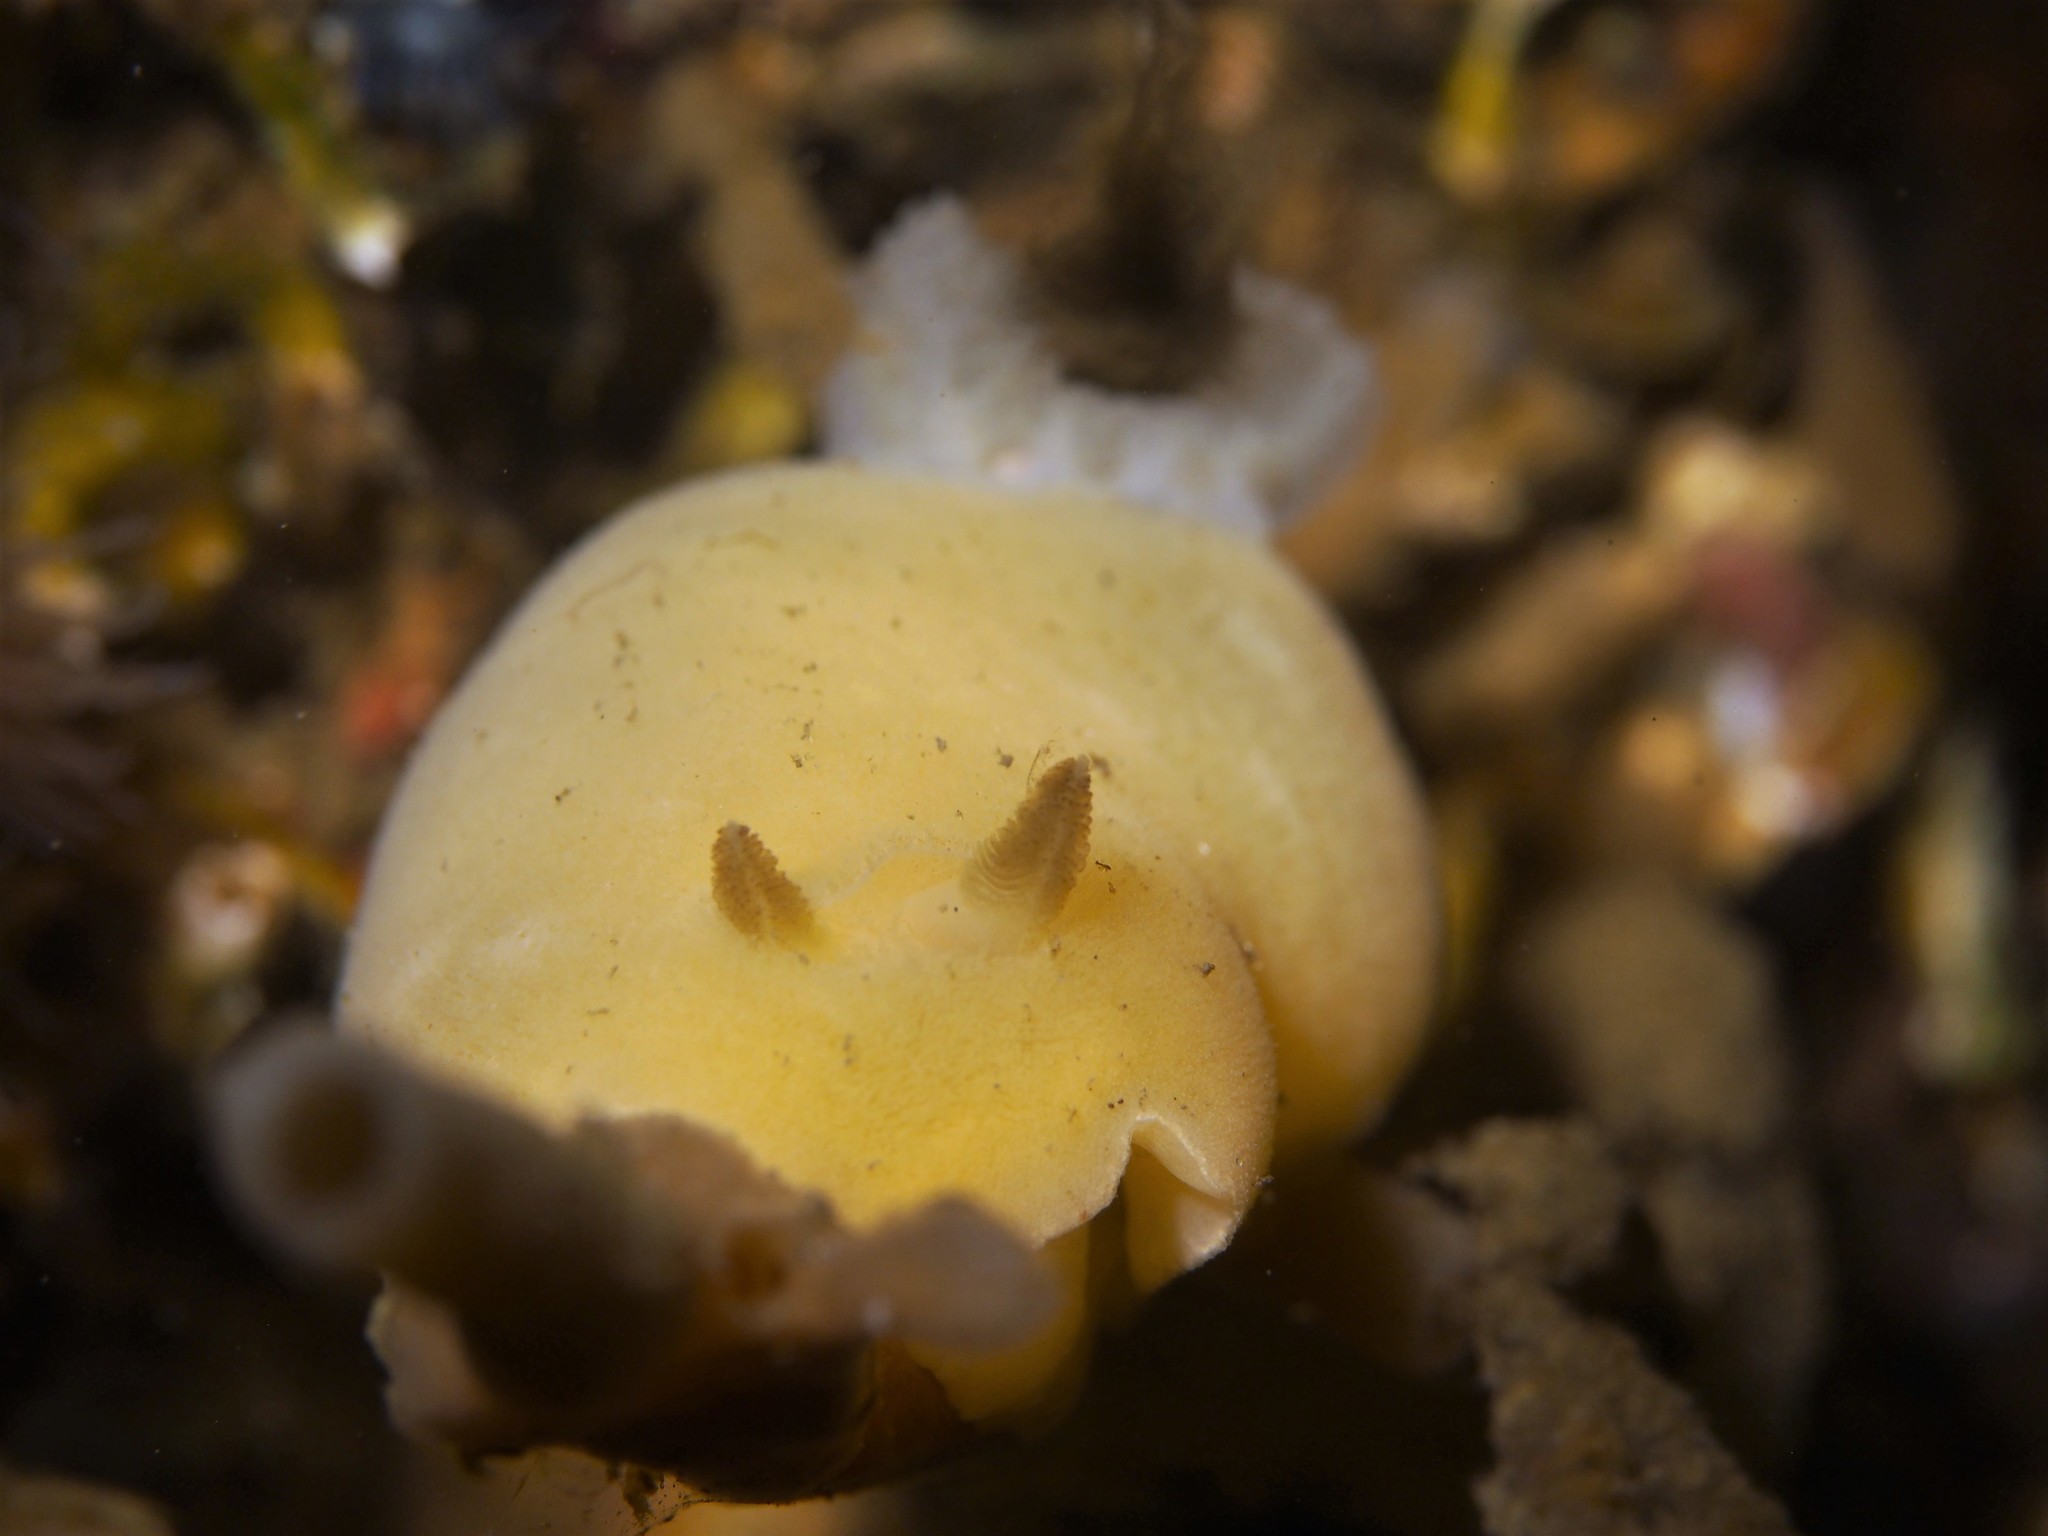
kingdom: Animalia
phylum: Mollusca
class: Gastropoda
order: Nudibranchia
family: Discodorididae
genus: Jorunna
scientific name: Jorunna tomentosa
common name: Grey sea slug
